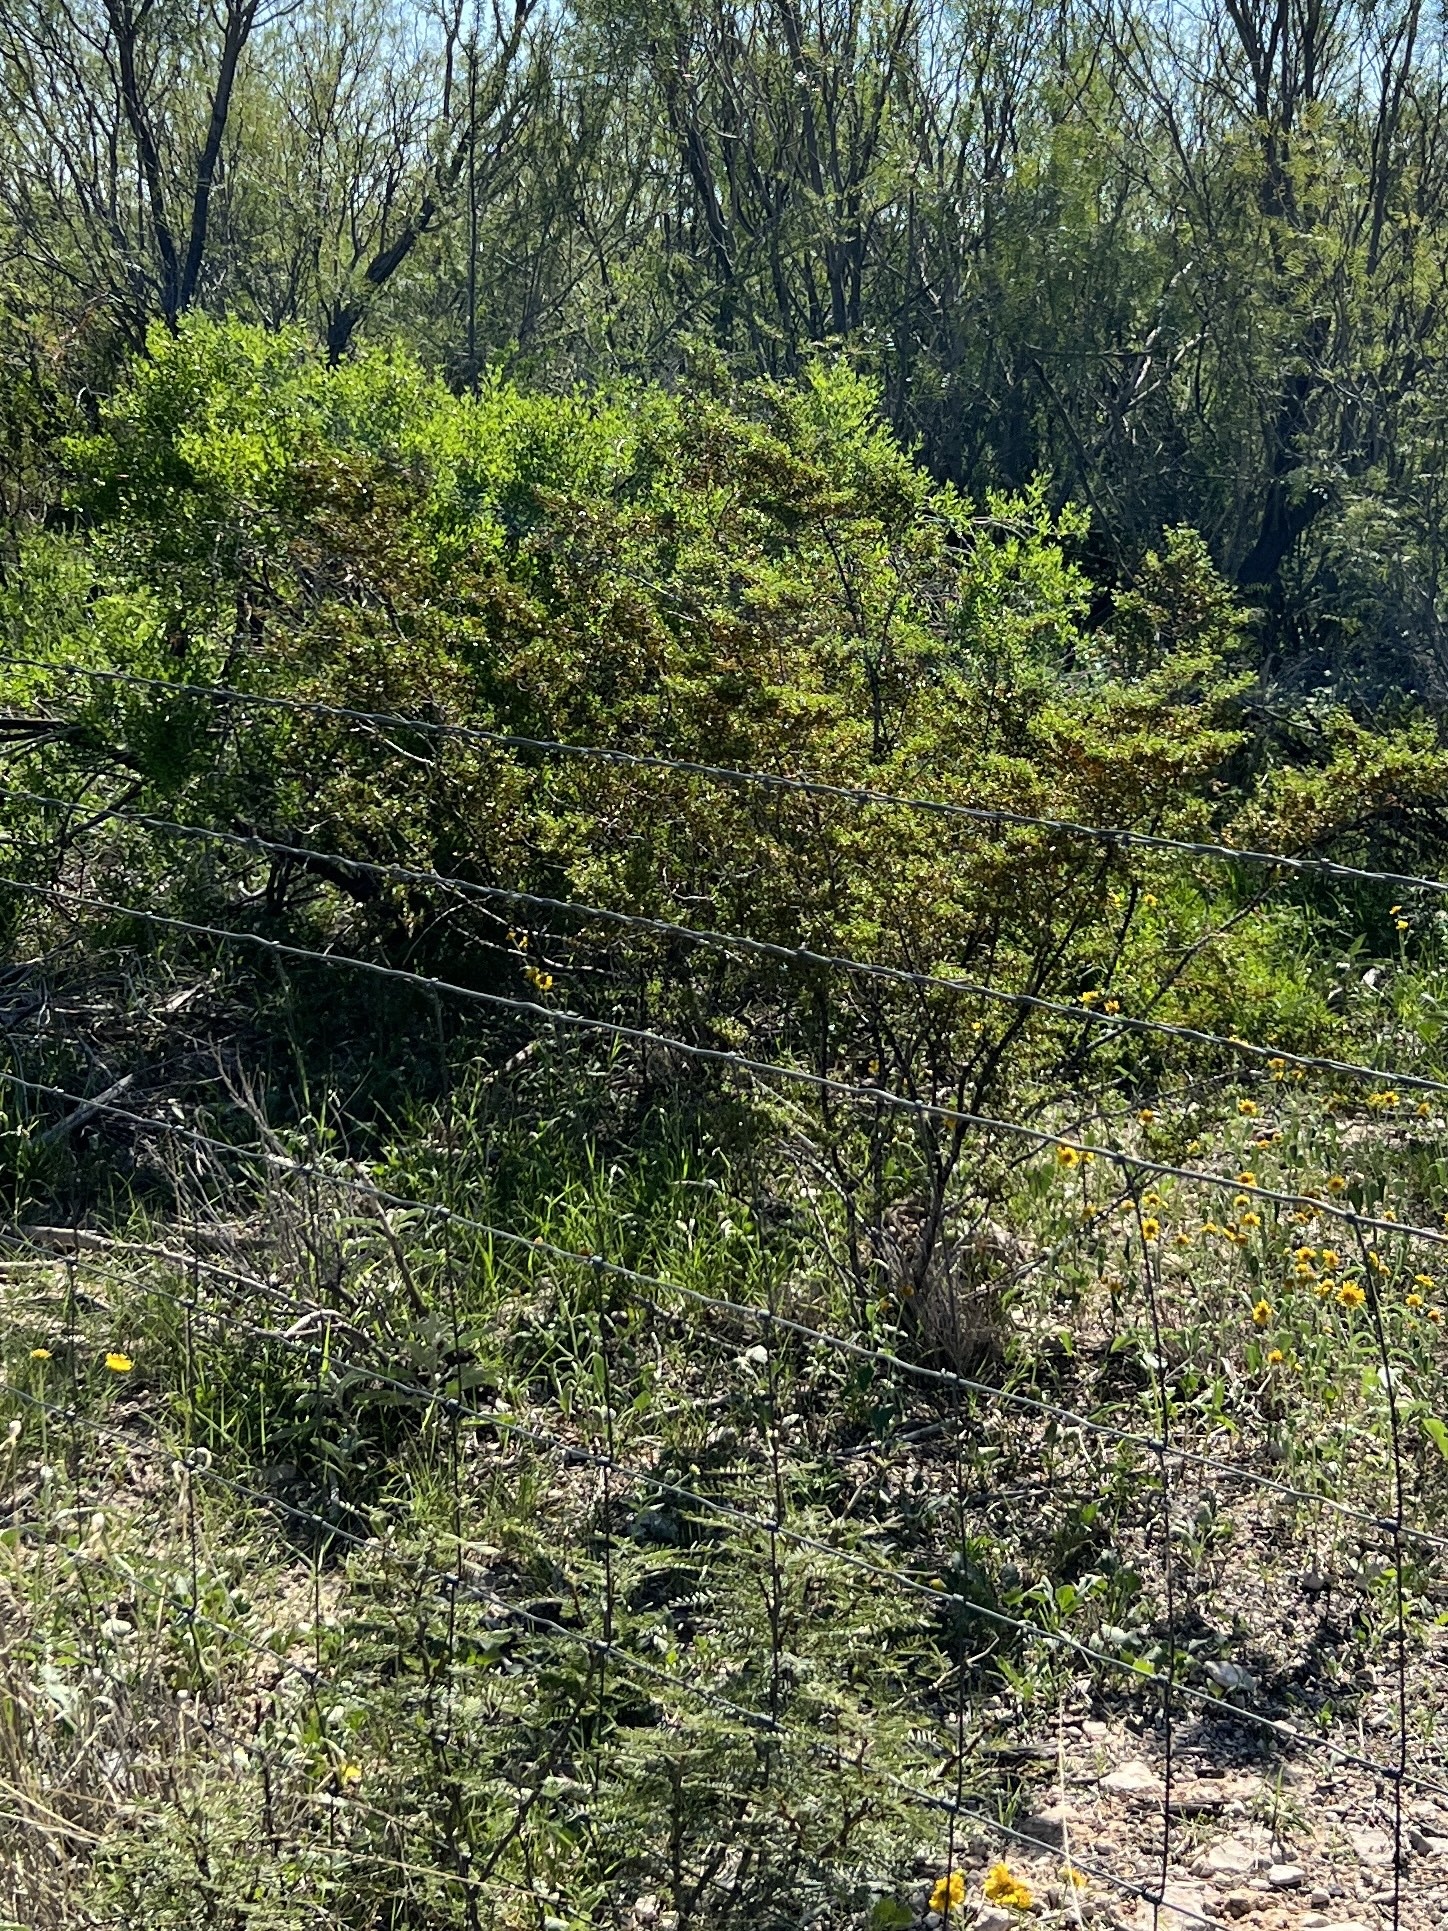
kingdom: Plantae
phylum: Tracheophyta
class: Magnoliopsida
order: Zygophyllales
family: Zygophyllaceae
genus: Larrea
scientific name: Larrea tridentata
